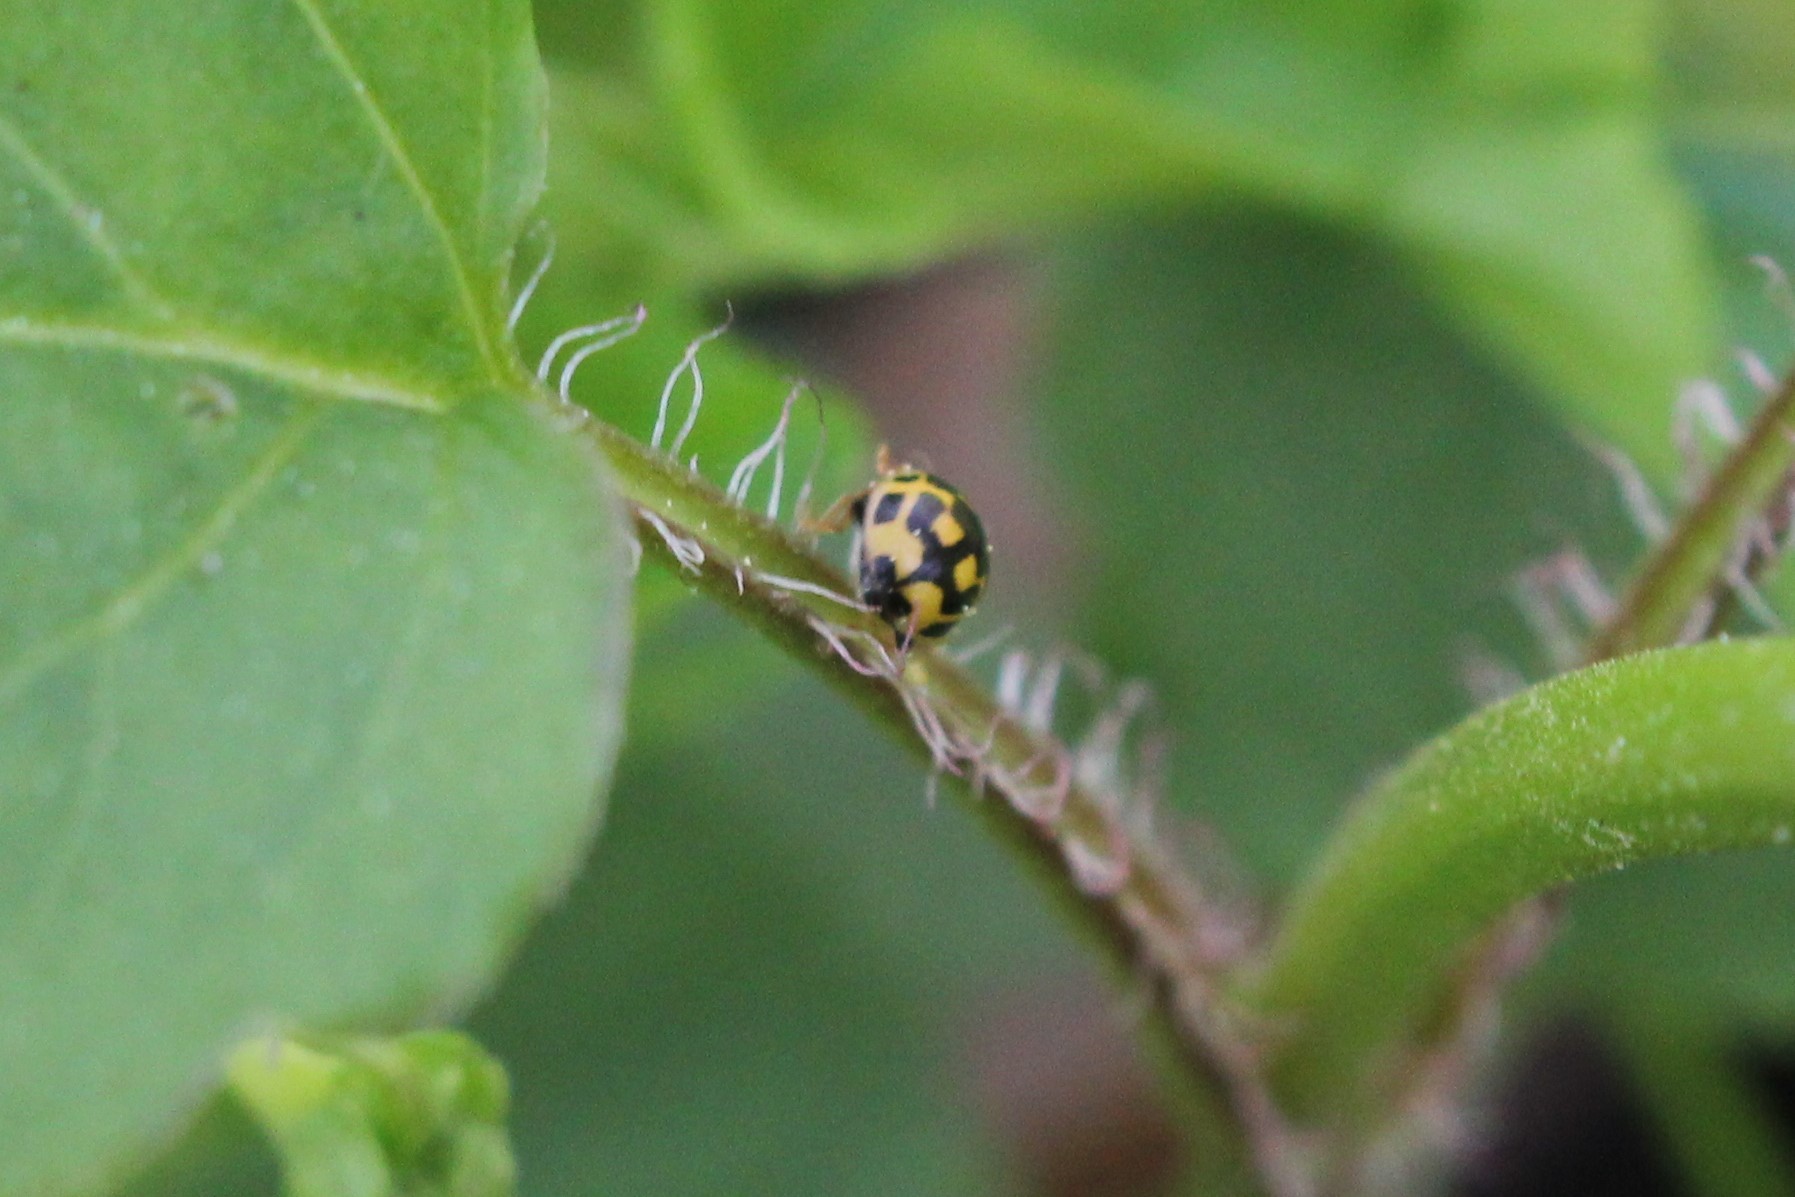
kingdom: Animalia
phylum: Arthropoda
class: Insecta
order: Coleoptera
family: Coccinellidae
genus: Propylaea
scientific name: Propylaea quatuordecimpunctata
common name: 14-spotted ladybird beetle
